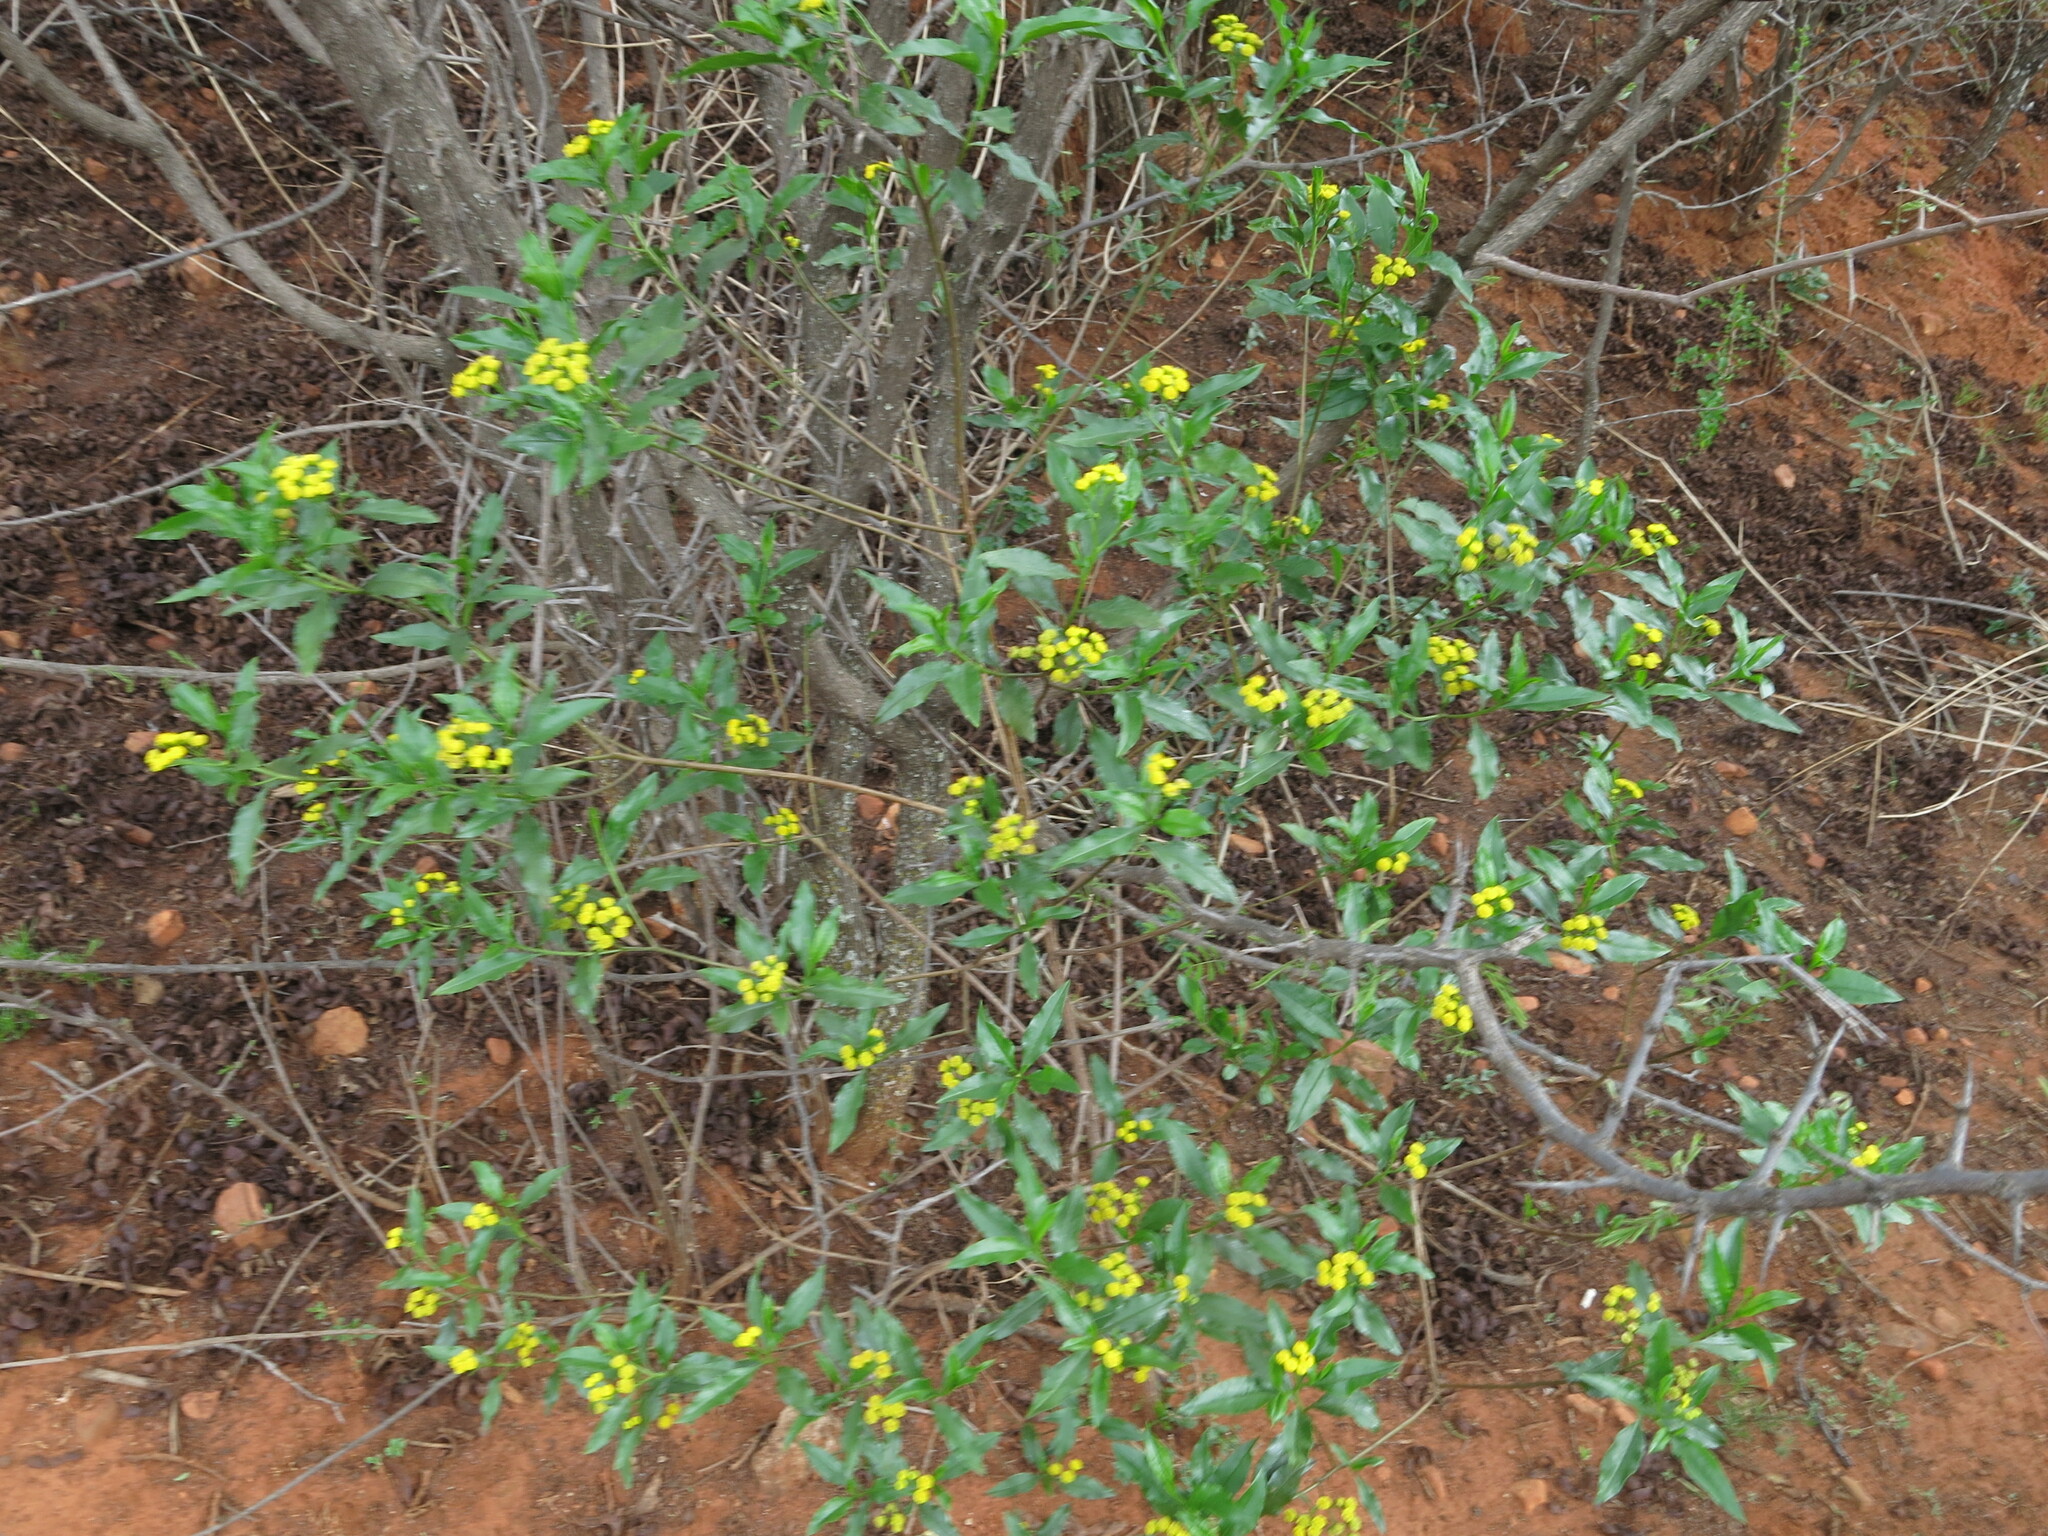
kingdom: Plantae
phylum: Tracheophyta
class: Magnoliopsida
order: Asterales
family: Asteraceae
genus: Psiadia
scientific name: Psiadia punctulata
